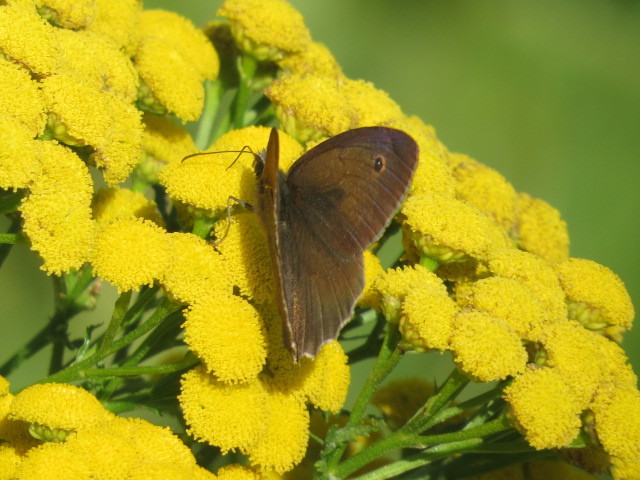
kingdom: Animalia
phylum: Arthropoda
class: Insecta
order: Lepidoptera
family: Nymphalidae
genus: Maniola
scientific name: Maniola jurtina
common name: Meadow brown
